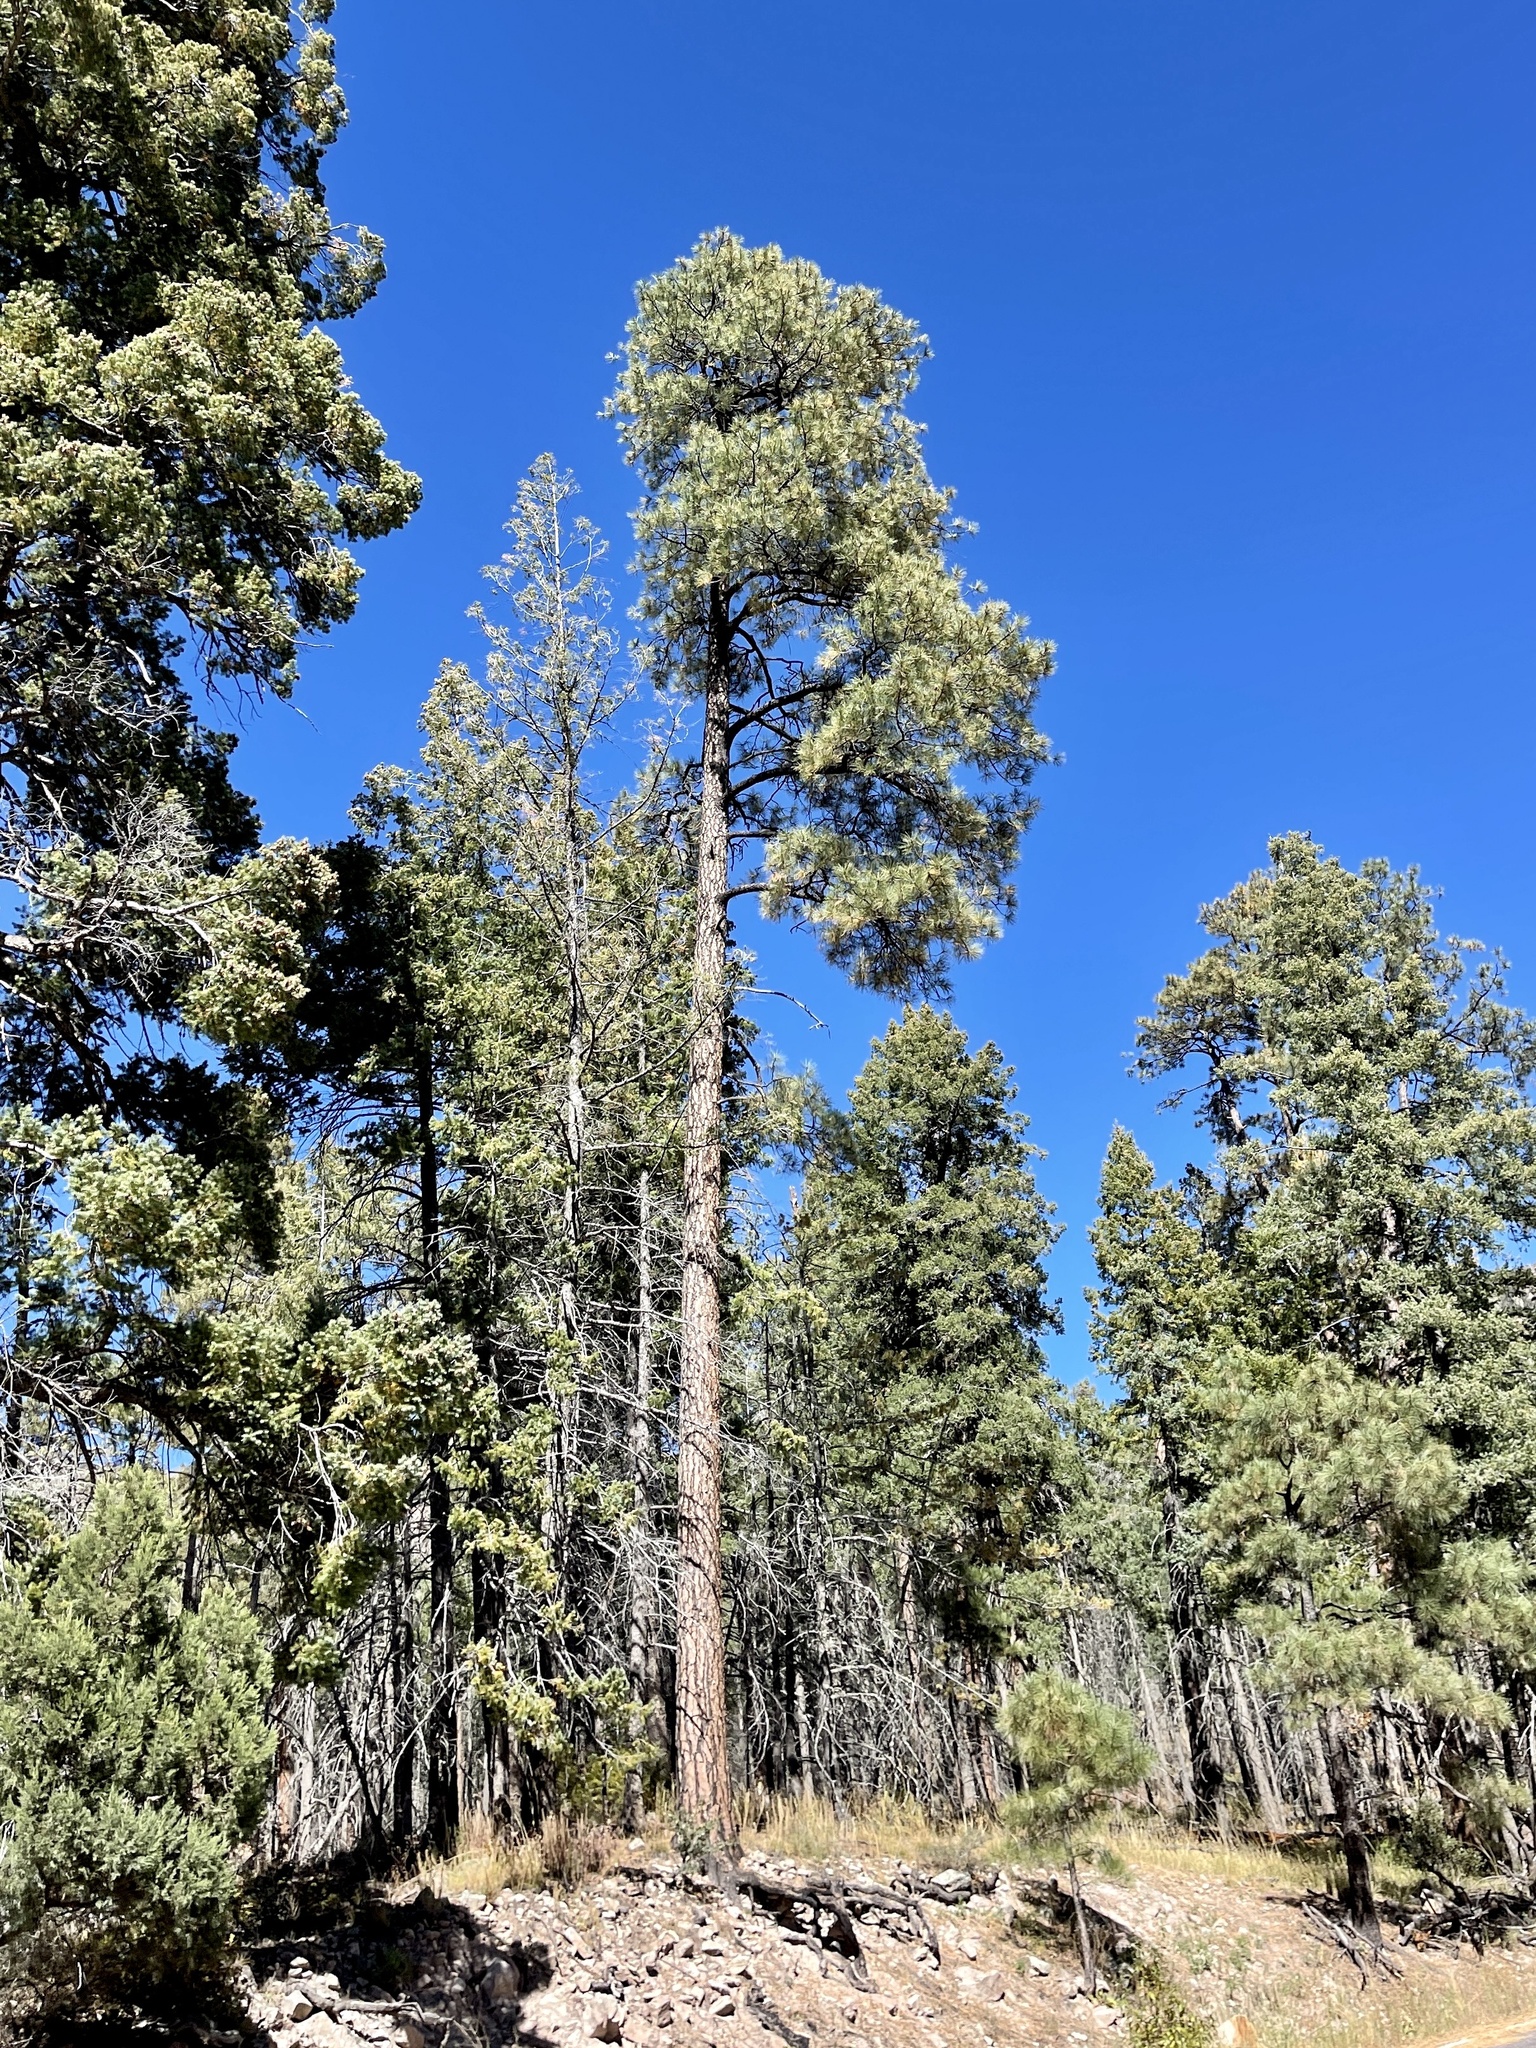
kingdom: Plantae
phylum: Tracheophyta
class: Pinopsida
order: Pinales
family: Pinaceae
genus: Pinus
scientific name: Pinus ponderosa
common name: Western yellow-pine
